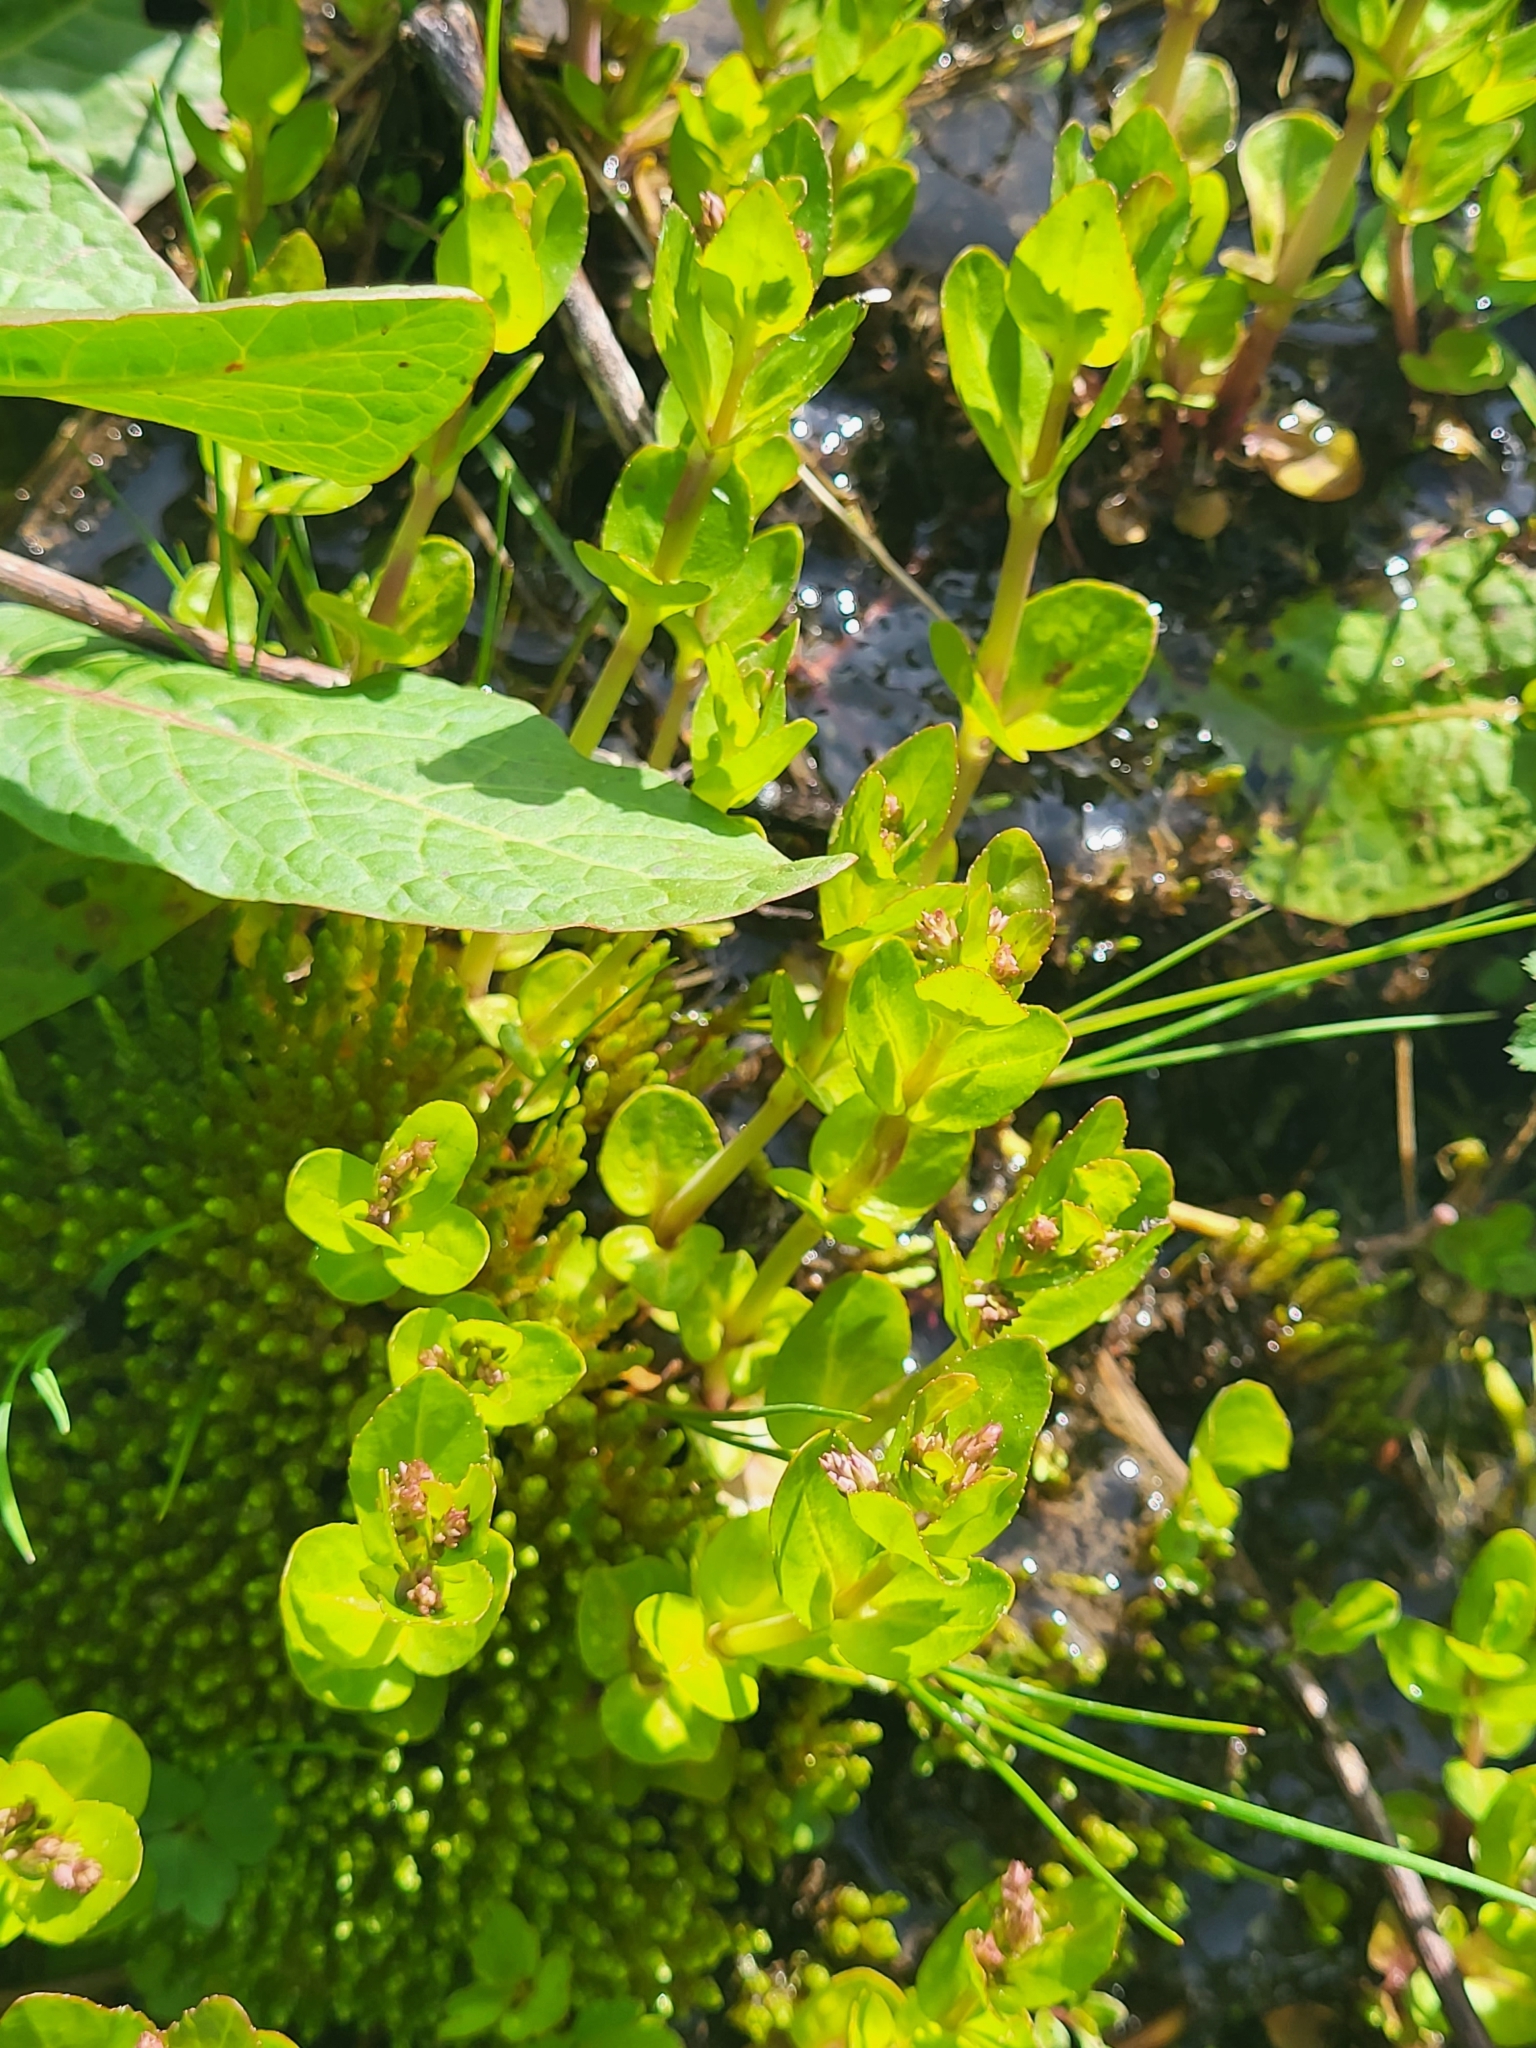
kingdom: Plantae
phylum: Tracheophyta
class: Magnoliopsida
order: Lamiales
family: Plantaginaceae
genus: Veronica
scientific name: Veronica beccabunga
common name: Brooklime
